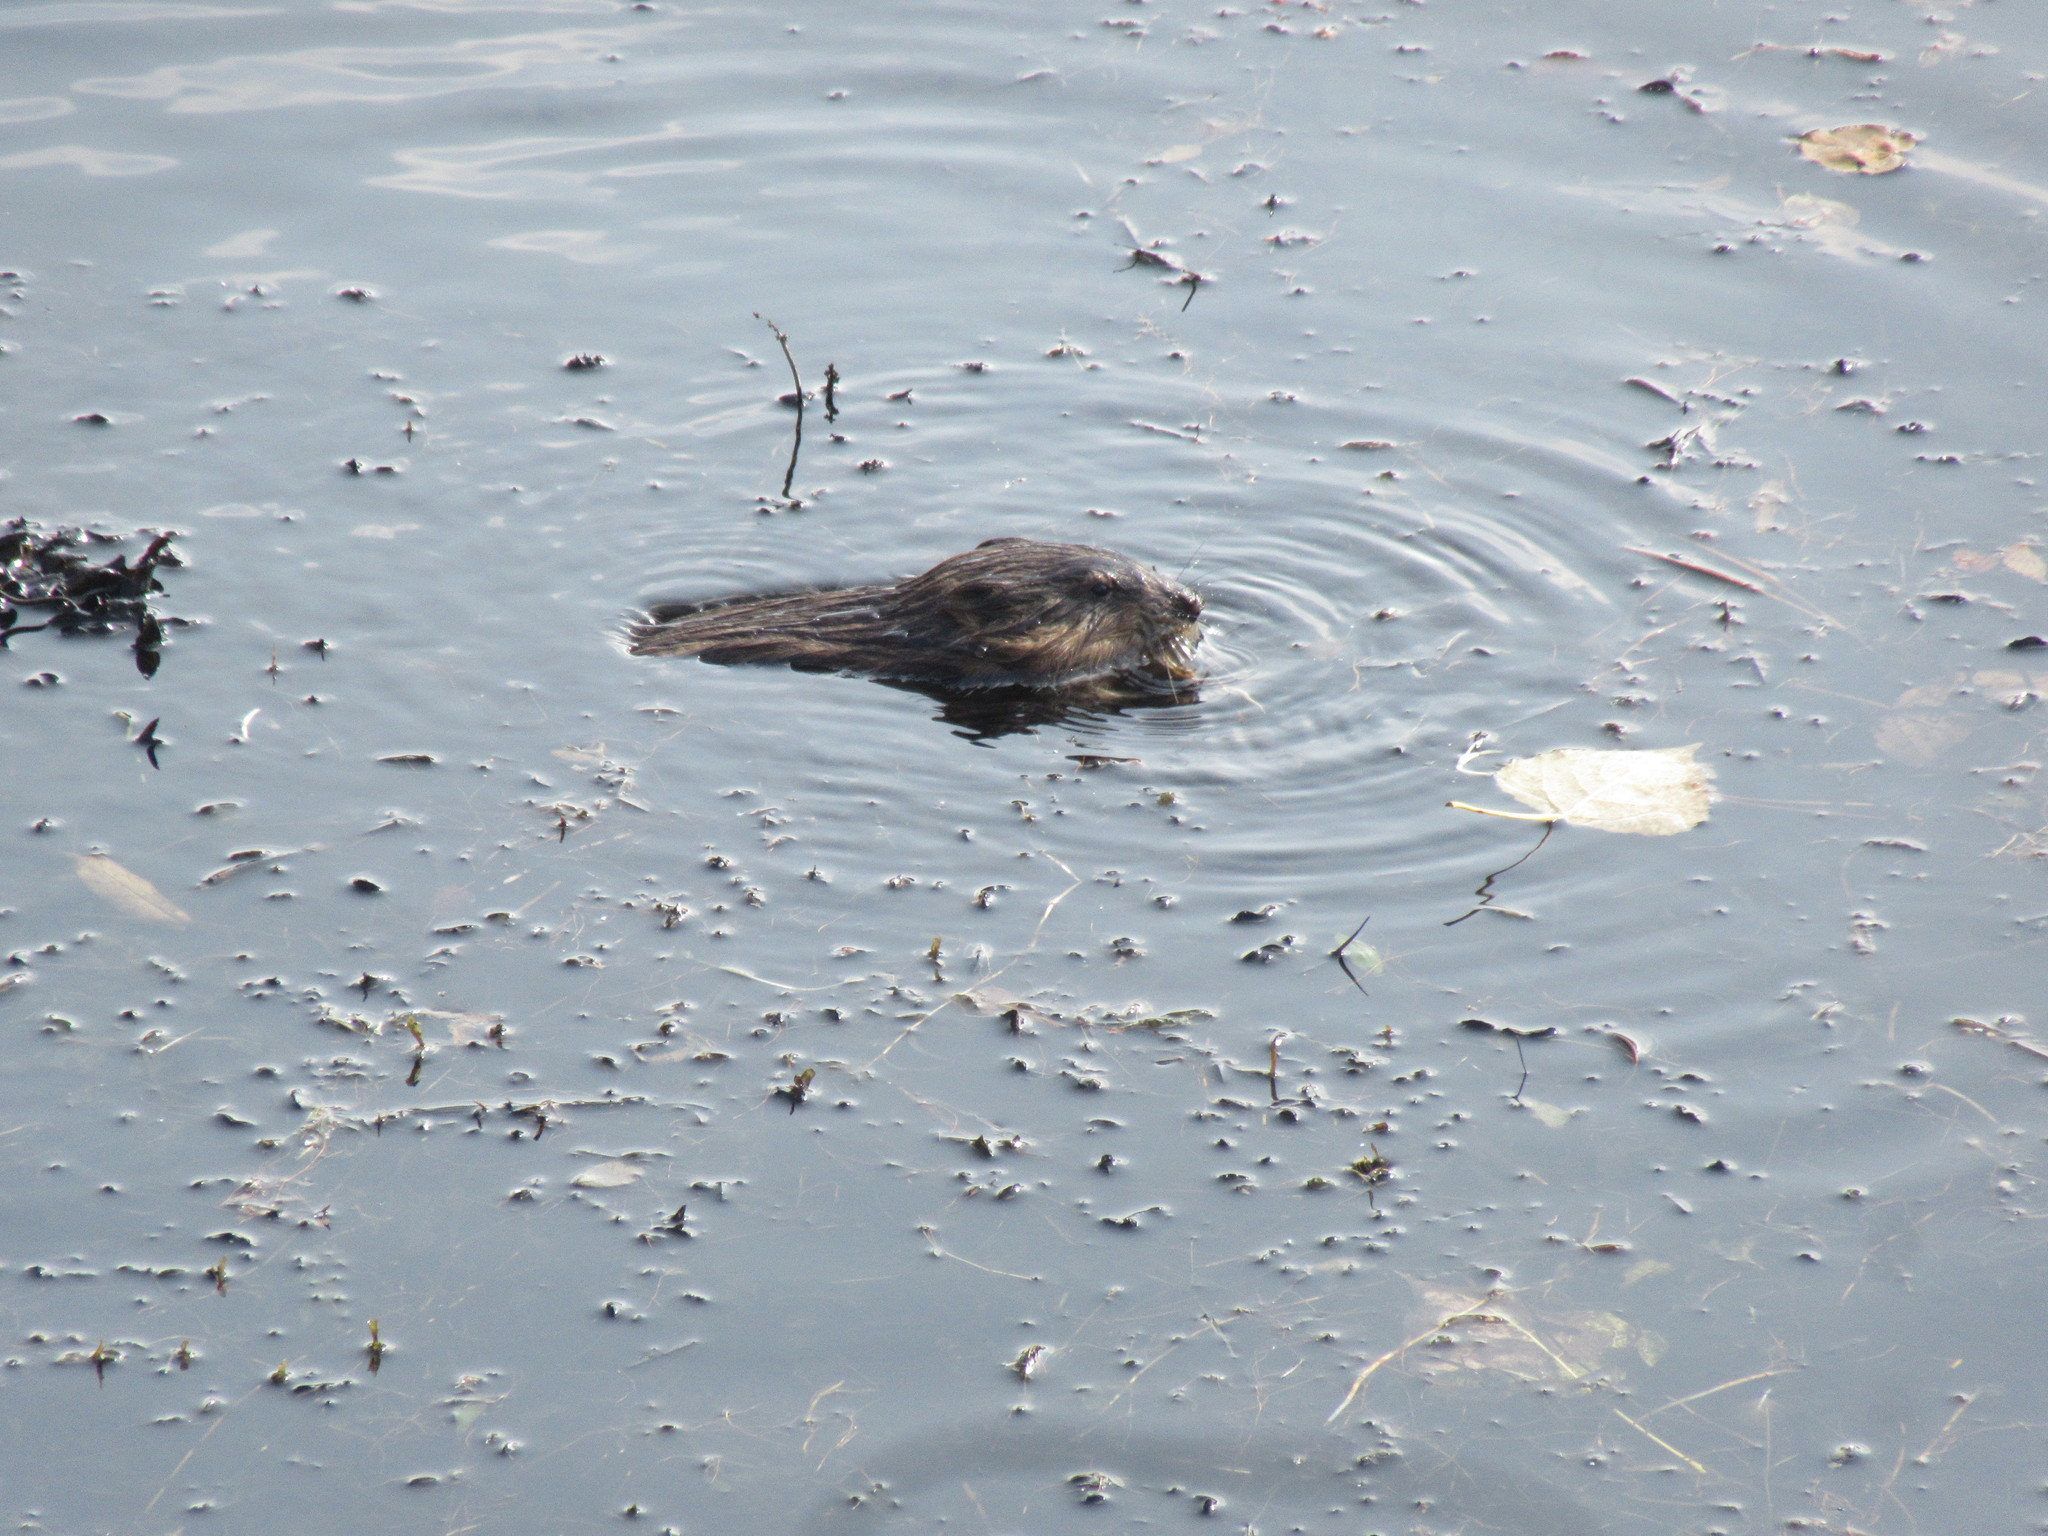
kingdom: Animalia
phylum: Chordata
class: Mammalia
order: Rodentia
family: Cricetidae
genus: Ondatra
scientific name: Ondatra zibethicus
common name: Muskrat
